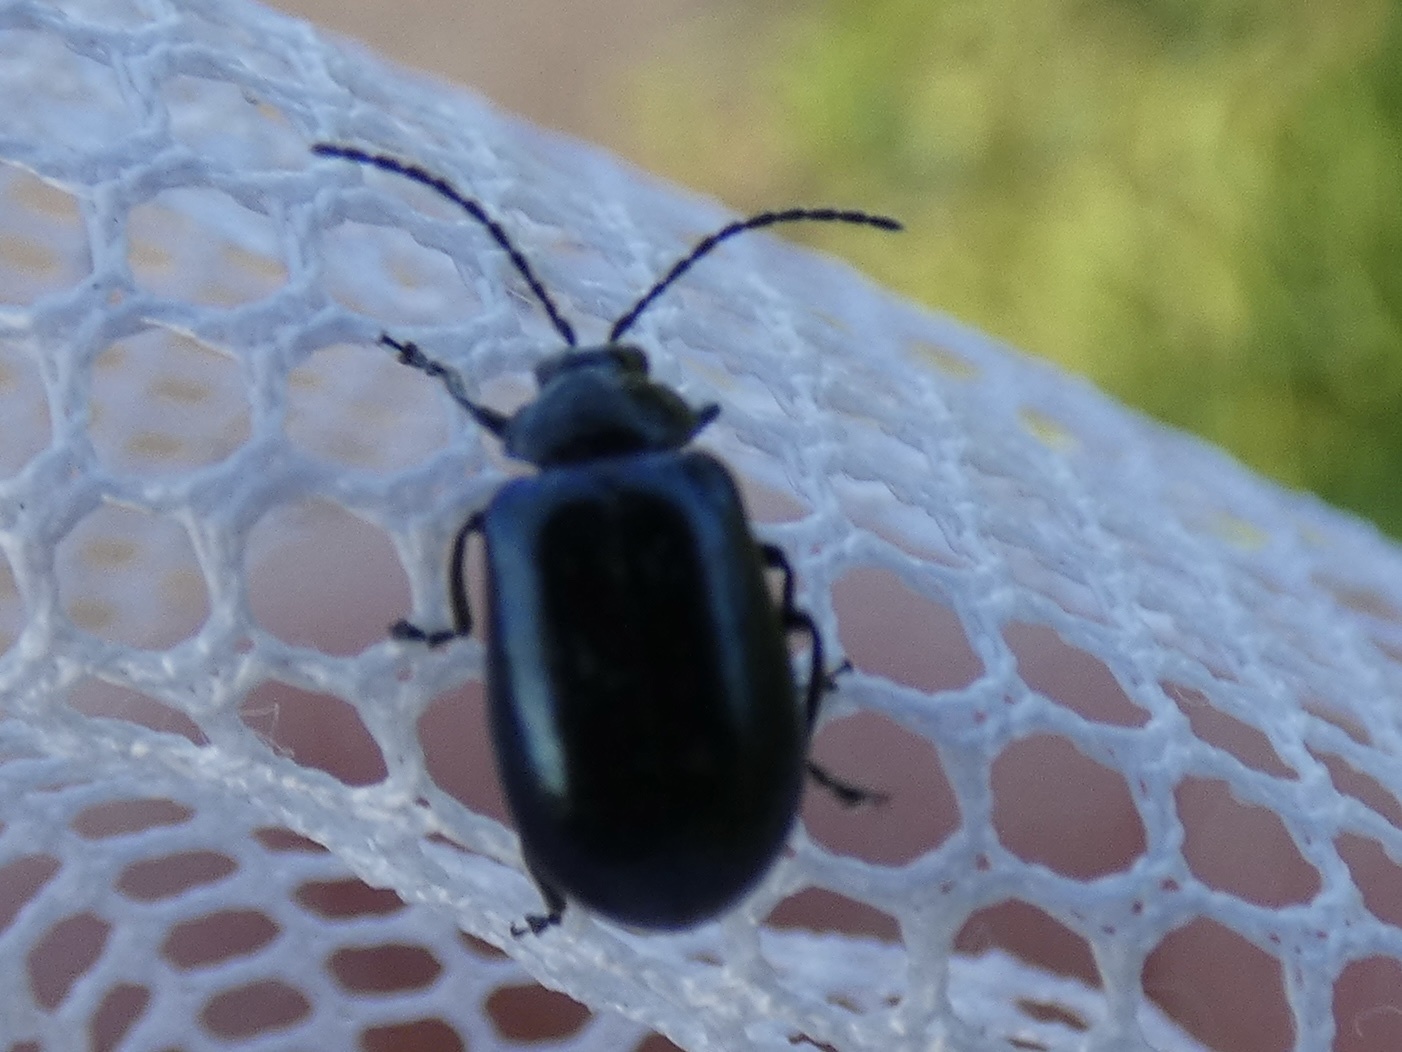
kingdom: Animalia
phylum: Arthropoda
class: Insecta
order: Coleoptera
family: Chrysomelidae
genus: Agelastica
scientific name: Agelastica alni
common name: Alder leaf beetle
